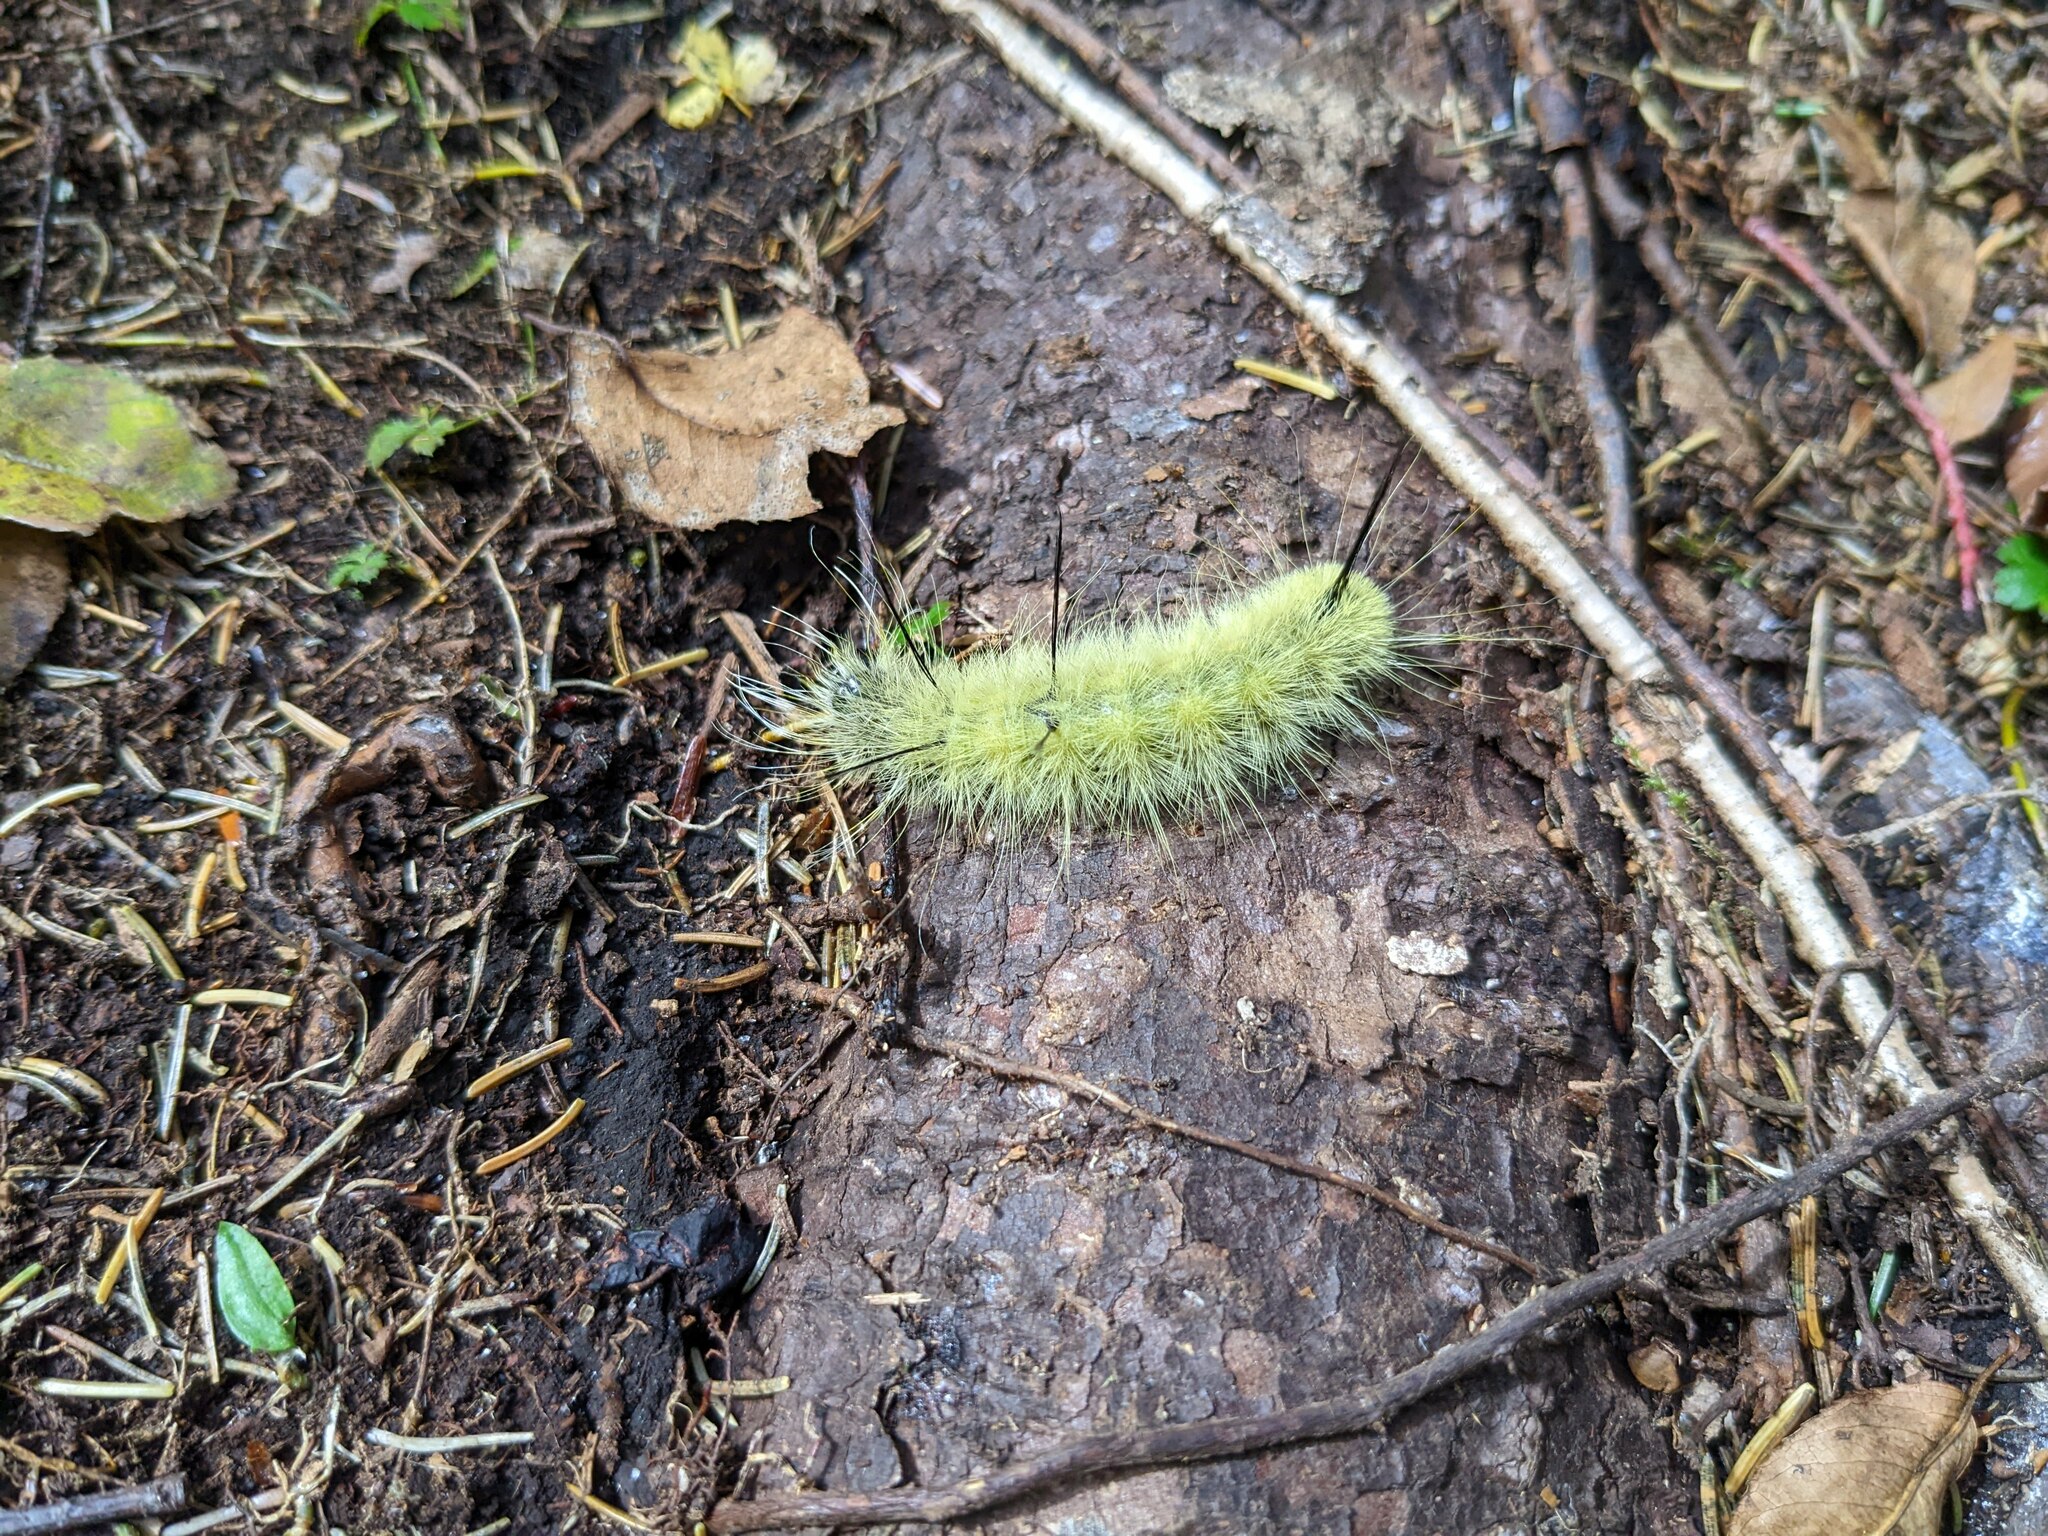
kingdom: Animalia
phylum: Arthropoda
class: Insecta
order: Lepidoptera
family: Noctuidae
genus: Acronicta
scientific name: Acronicta americana
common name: American dagger
